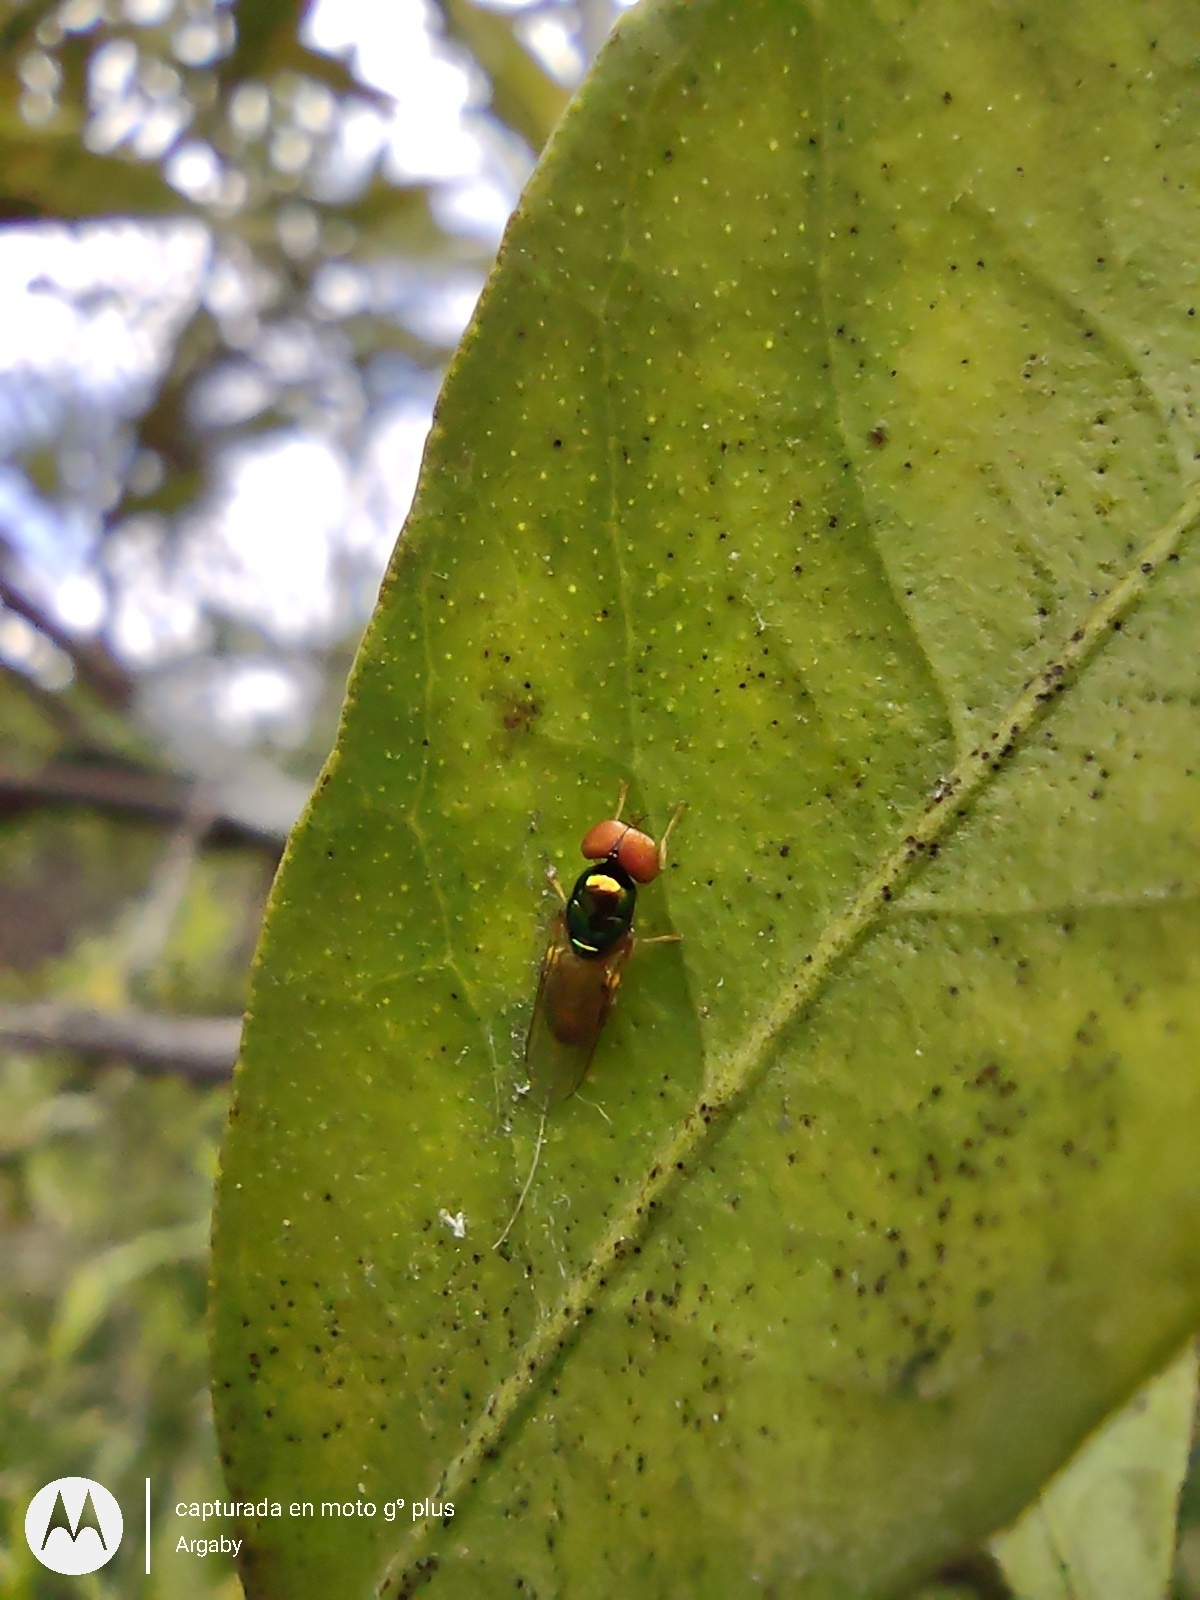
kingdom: Animalia
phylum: Arthropoda
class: Insecta
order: Diptera
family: Stratiomyidae
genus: Microchrysa
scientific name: Microchrysa bicolor
